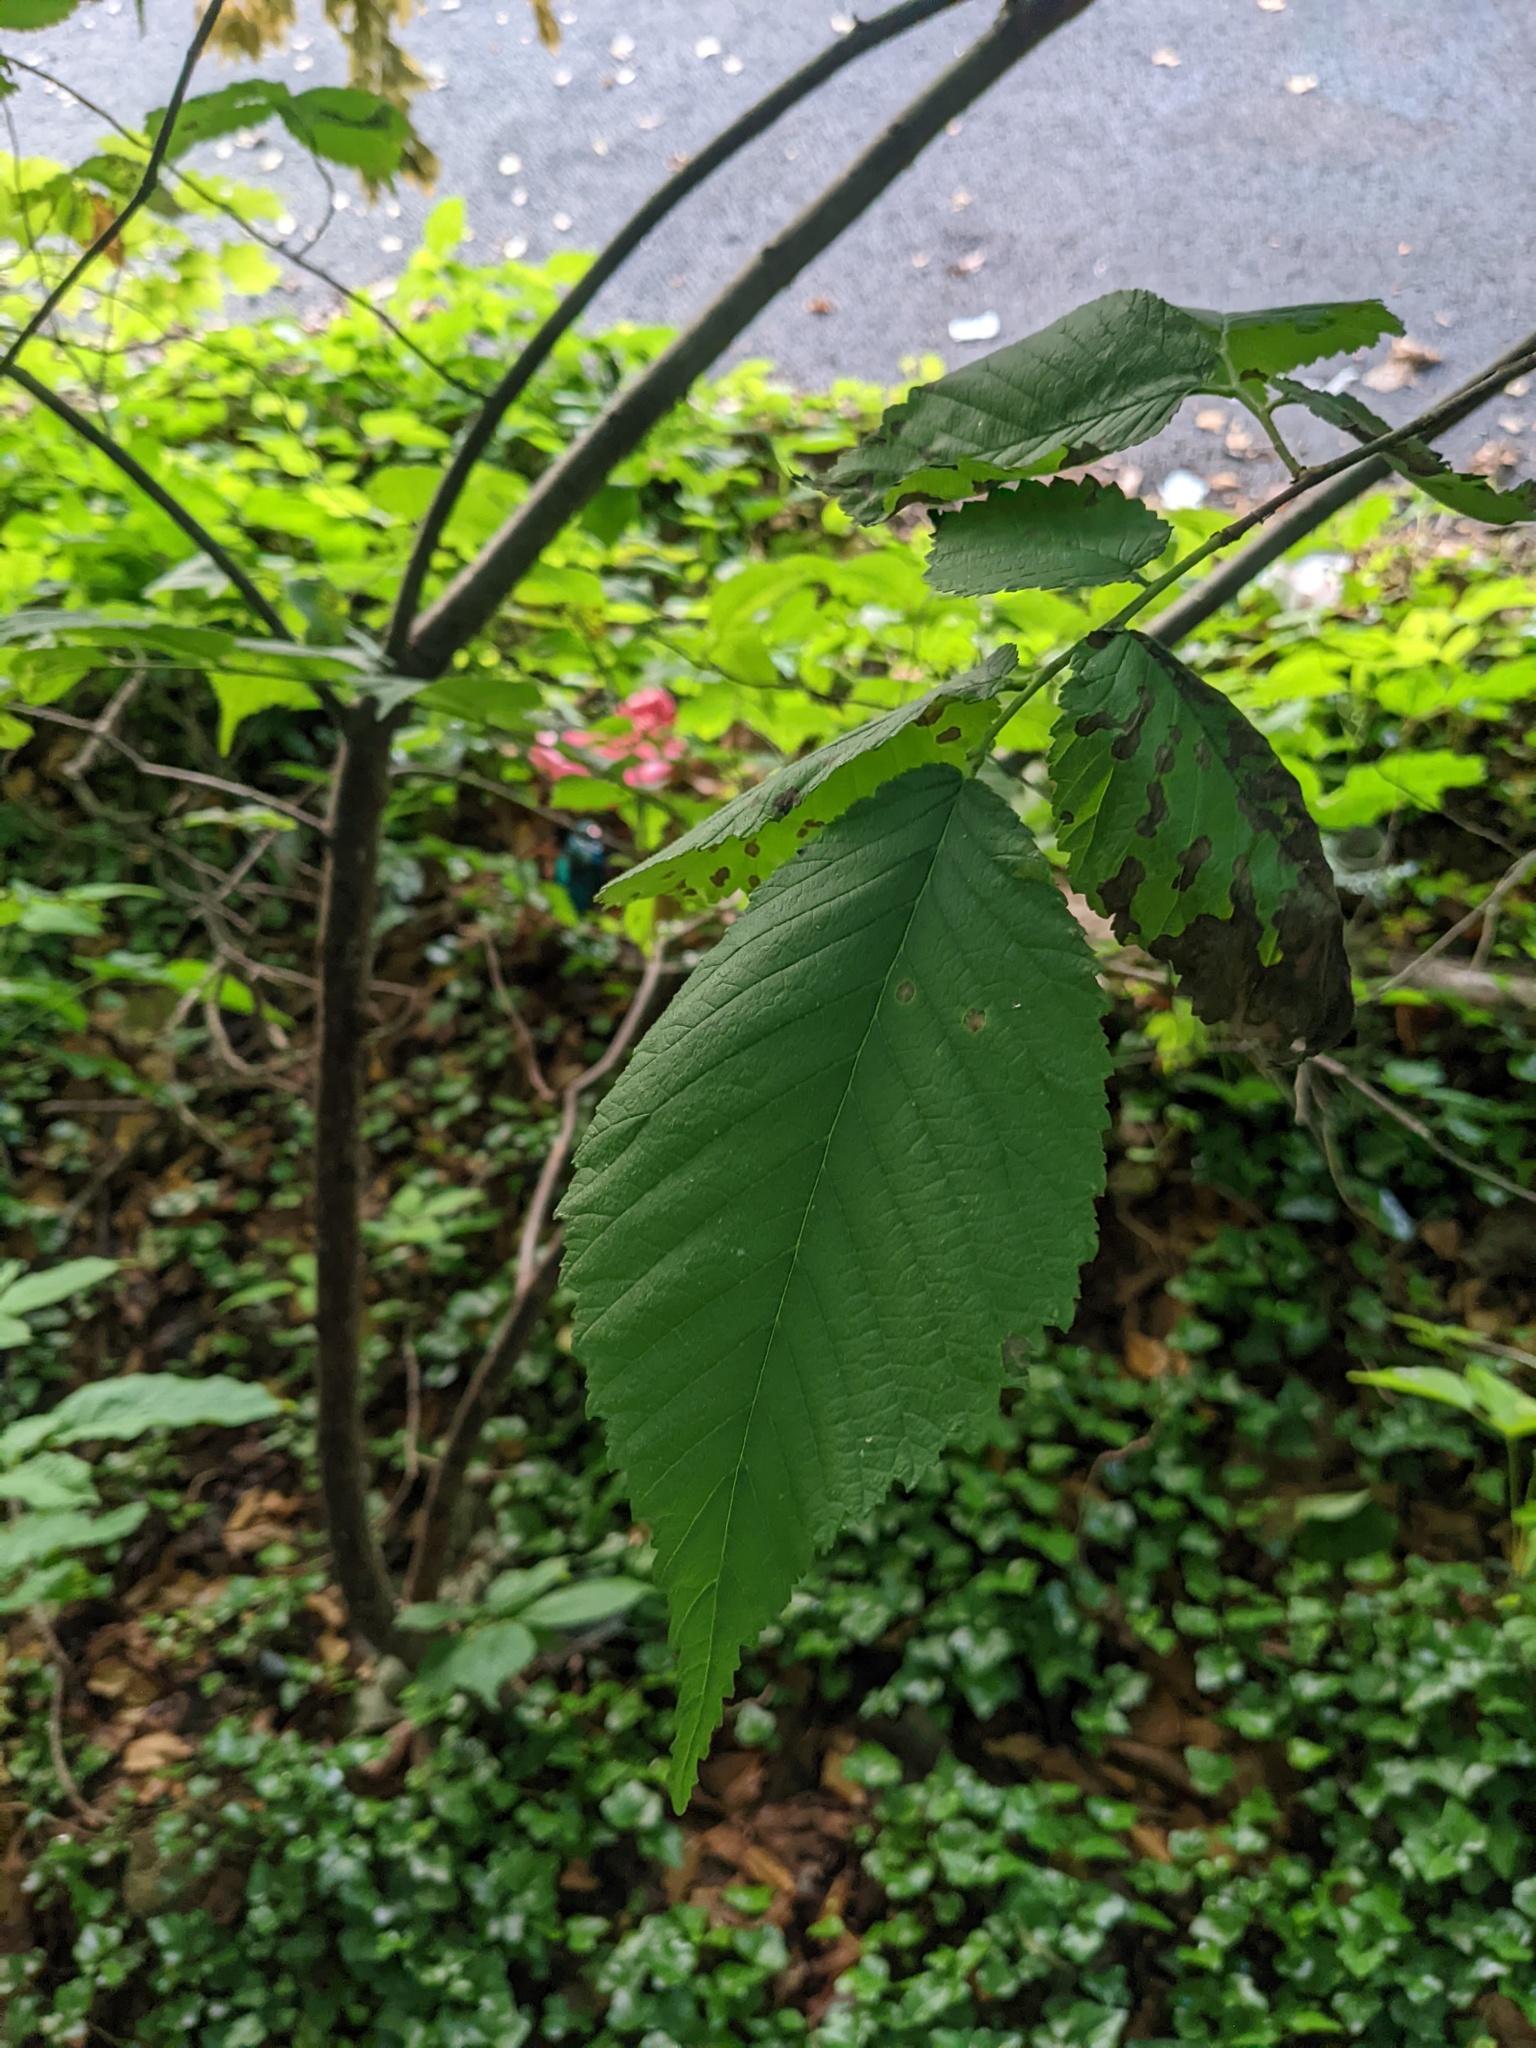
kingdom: Plantae
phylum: Tracheophyta
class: Magnoliopsida
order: Rosales
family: Ulmaceae
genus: Ulmus
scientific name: Ulmus rubra
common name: Slippery elm
